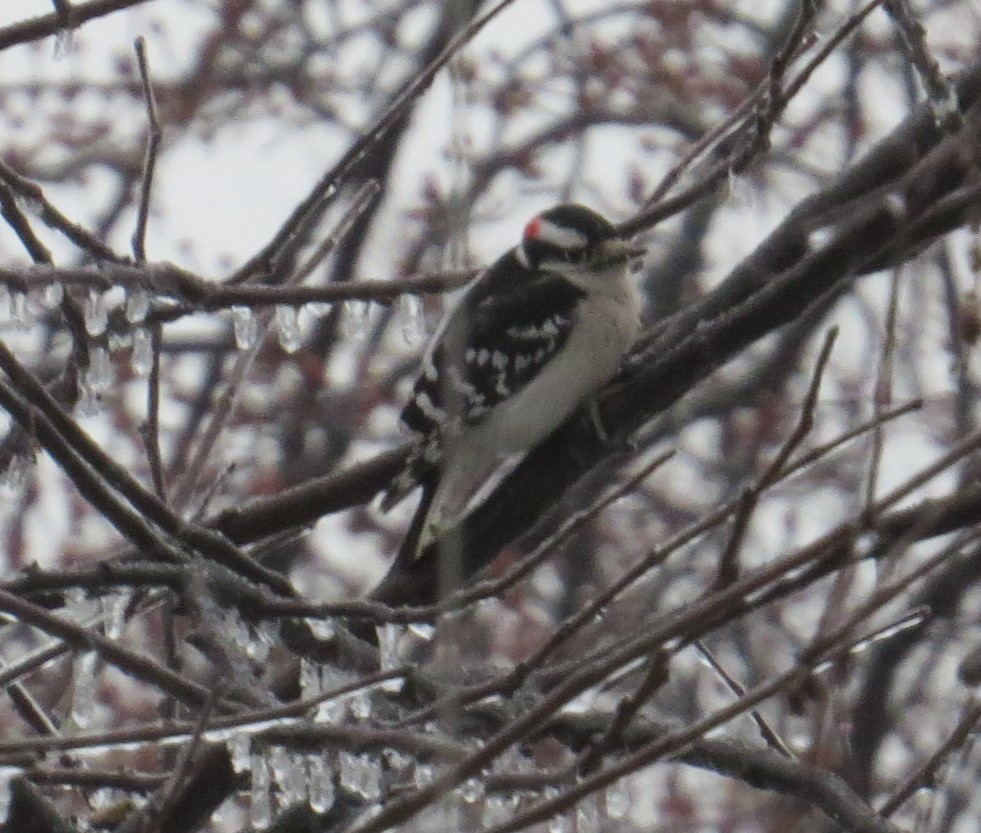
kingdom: Animalia
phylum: Chordata
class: Aves
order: Piciformes
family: Picidae
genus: Dryobates
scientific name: Dryobates pubescens
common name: Downy woodpecker
